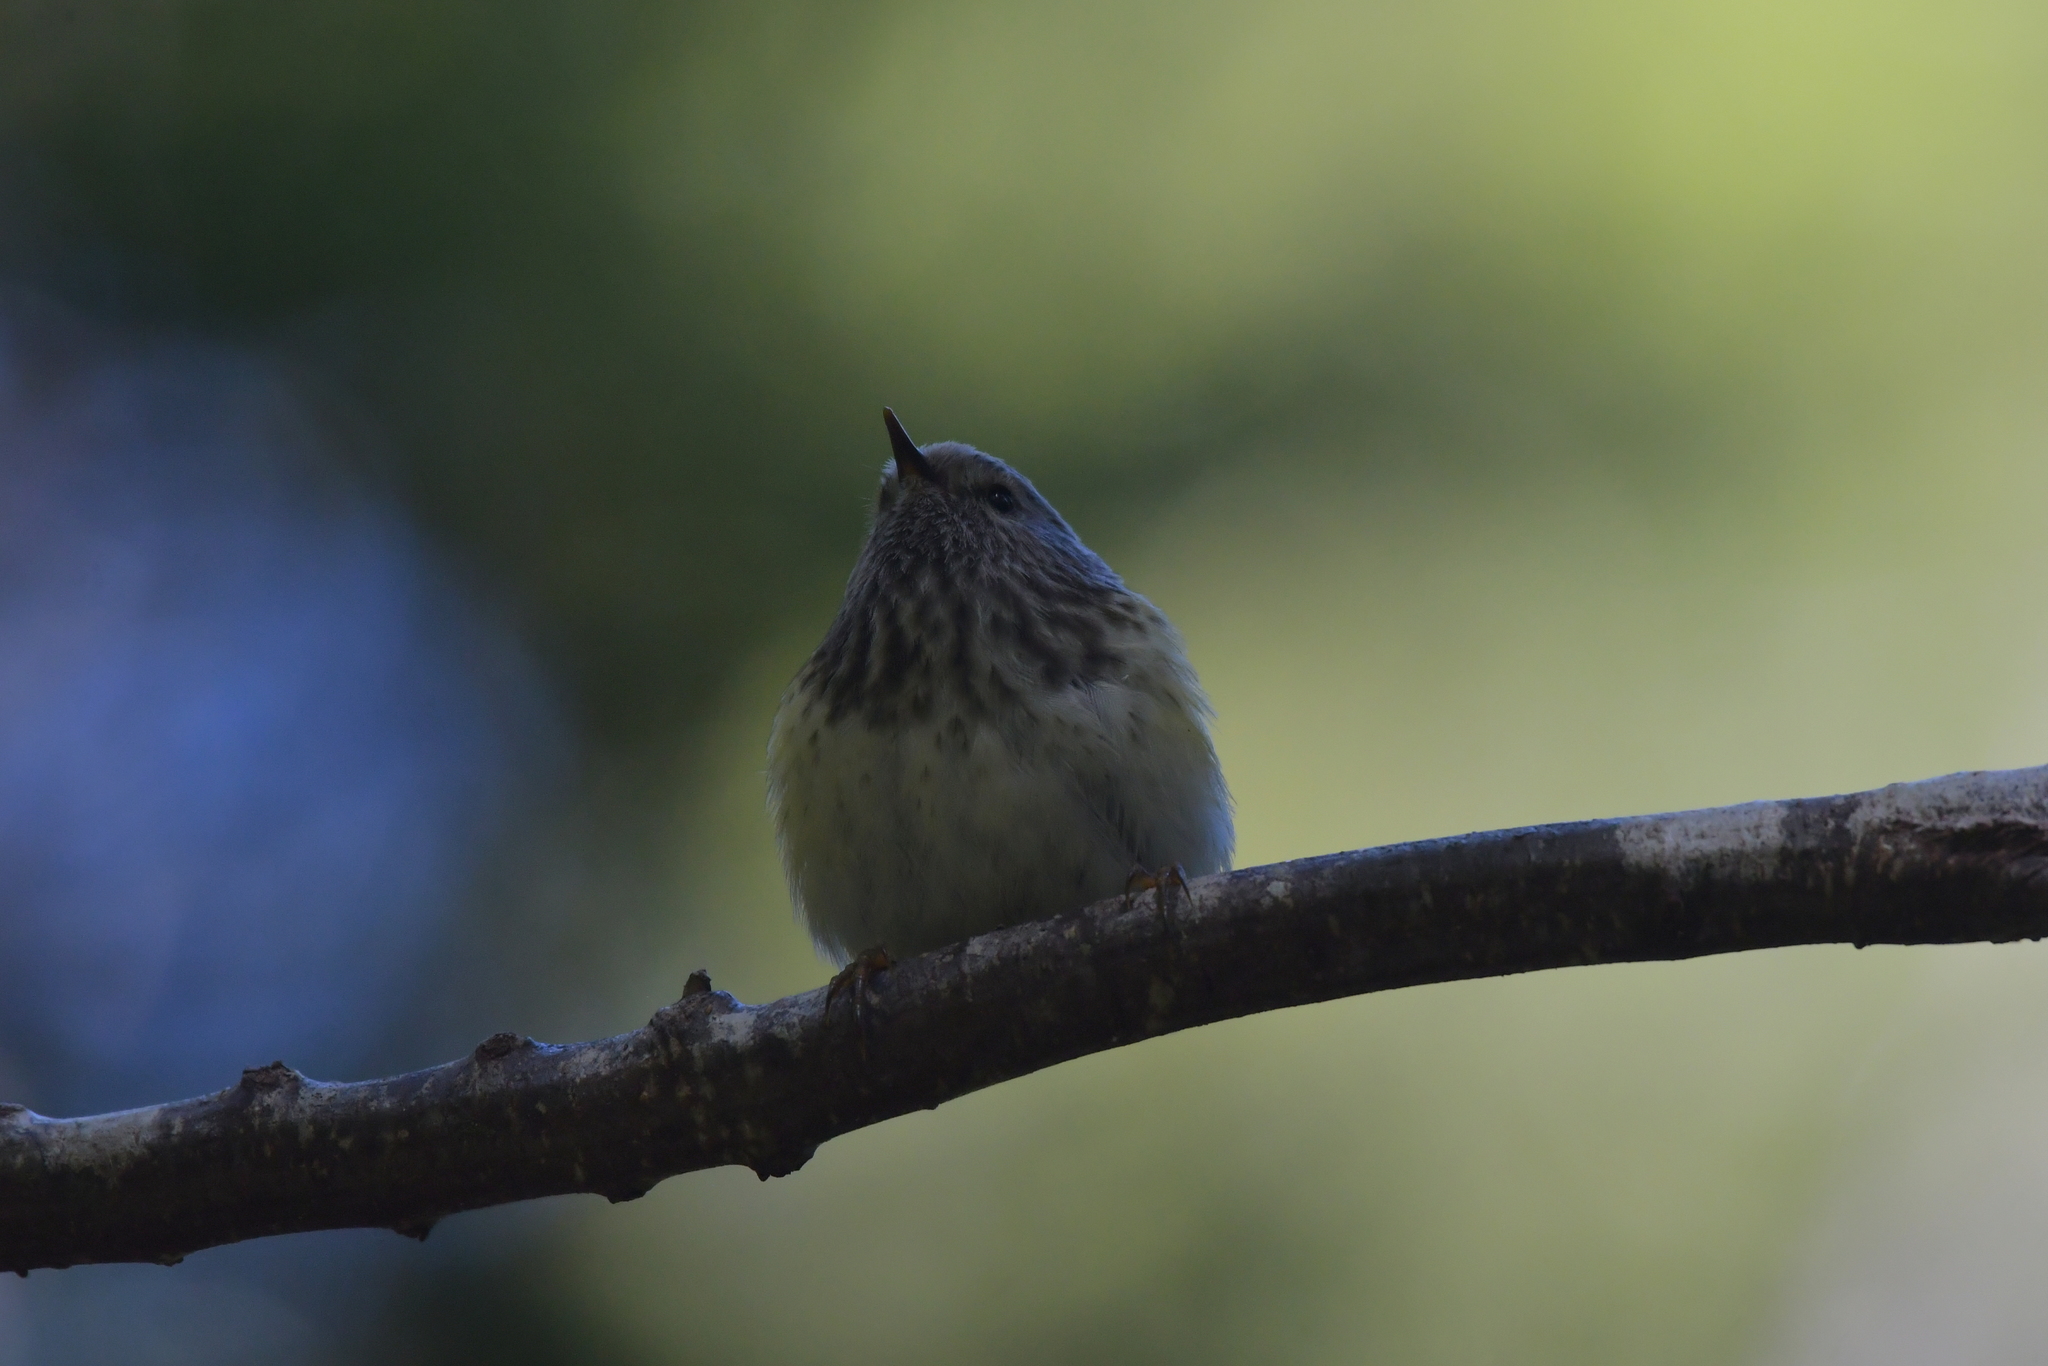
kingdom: Animalia
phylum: Chordata
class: Aves
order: Passeriformes
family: Acanthisittidae
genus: Acanthisitta
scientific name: Acanthisitta chloris
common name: Rifleman
